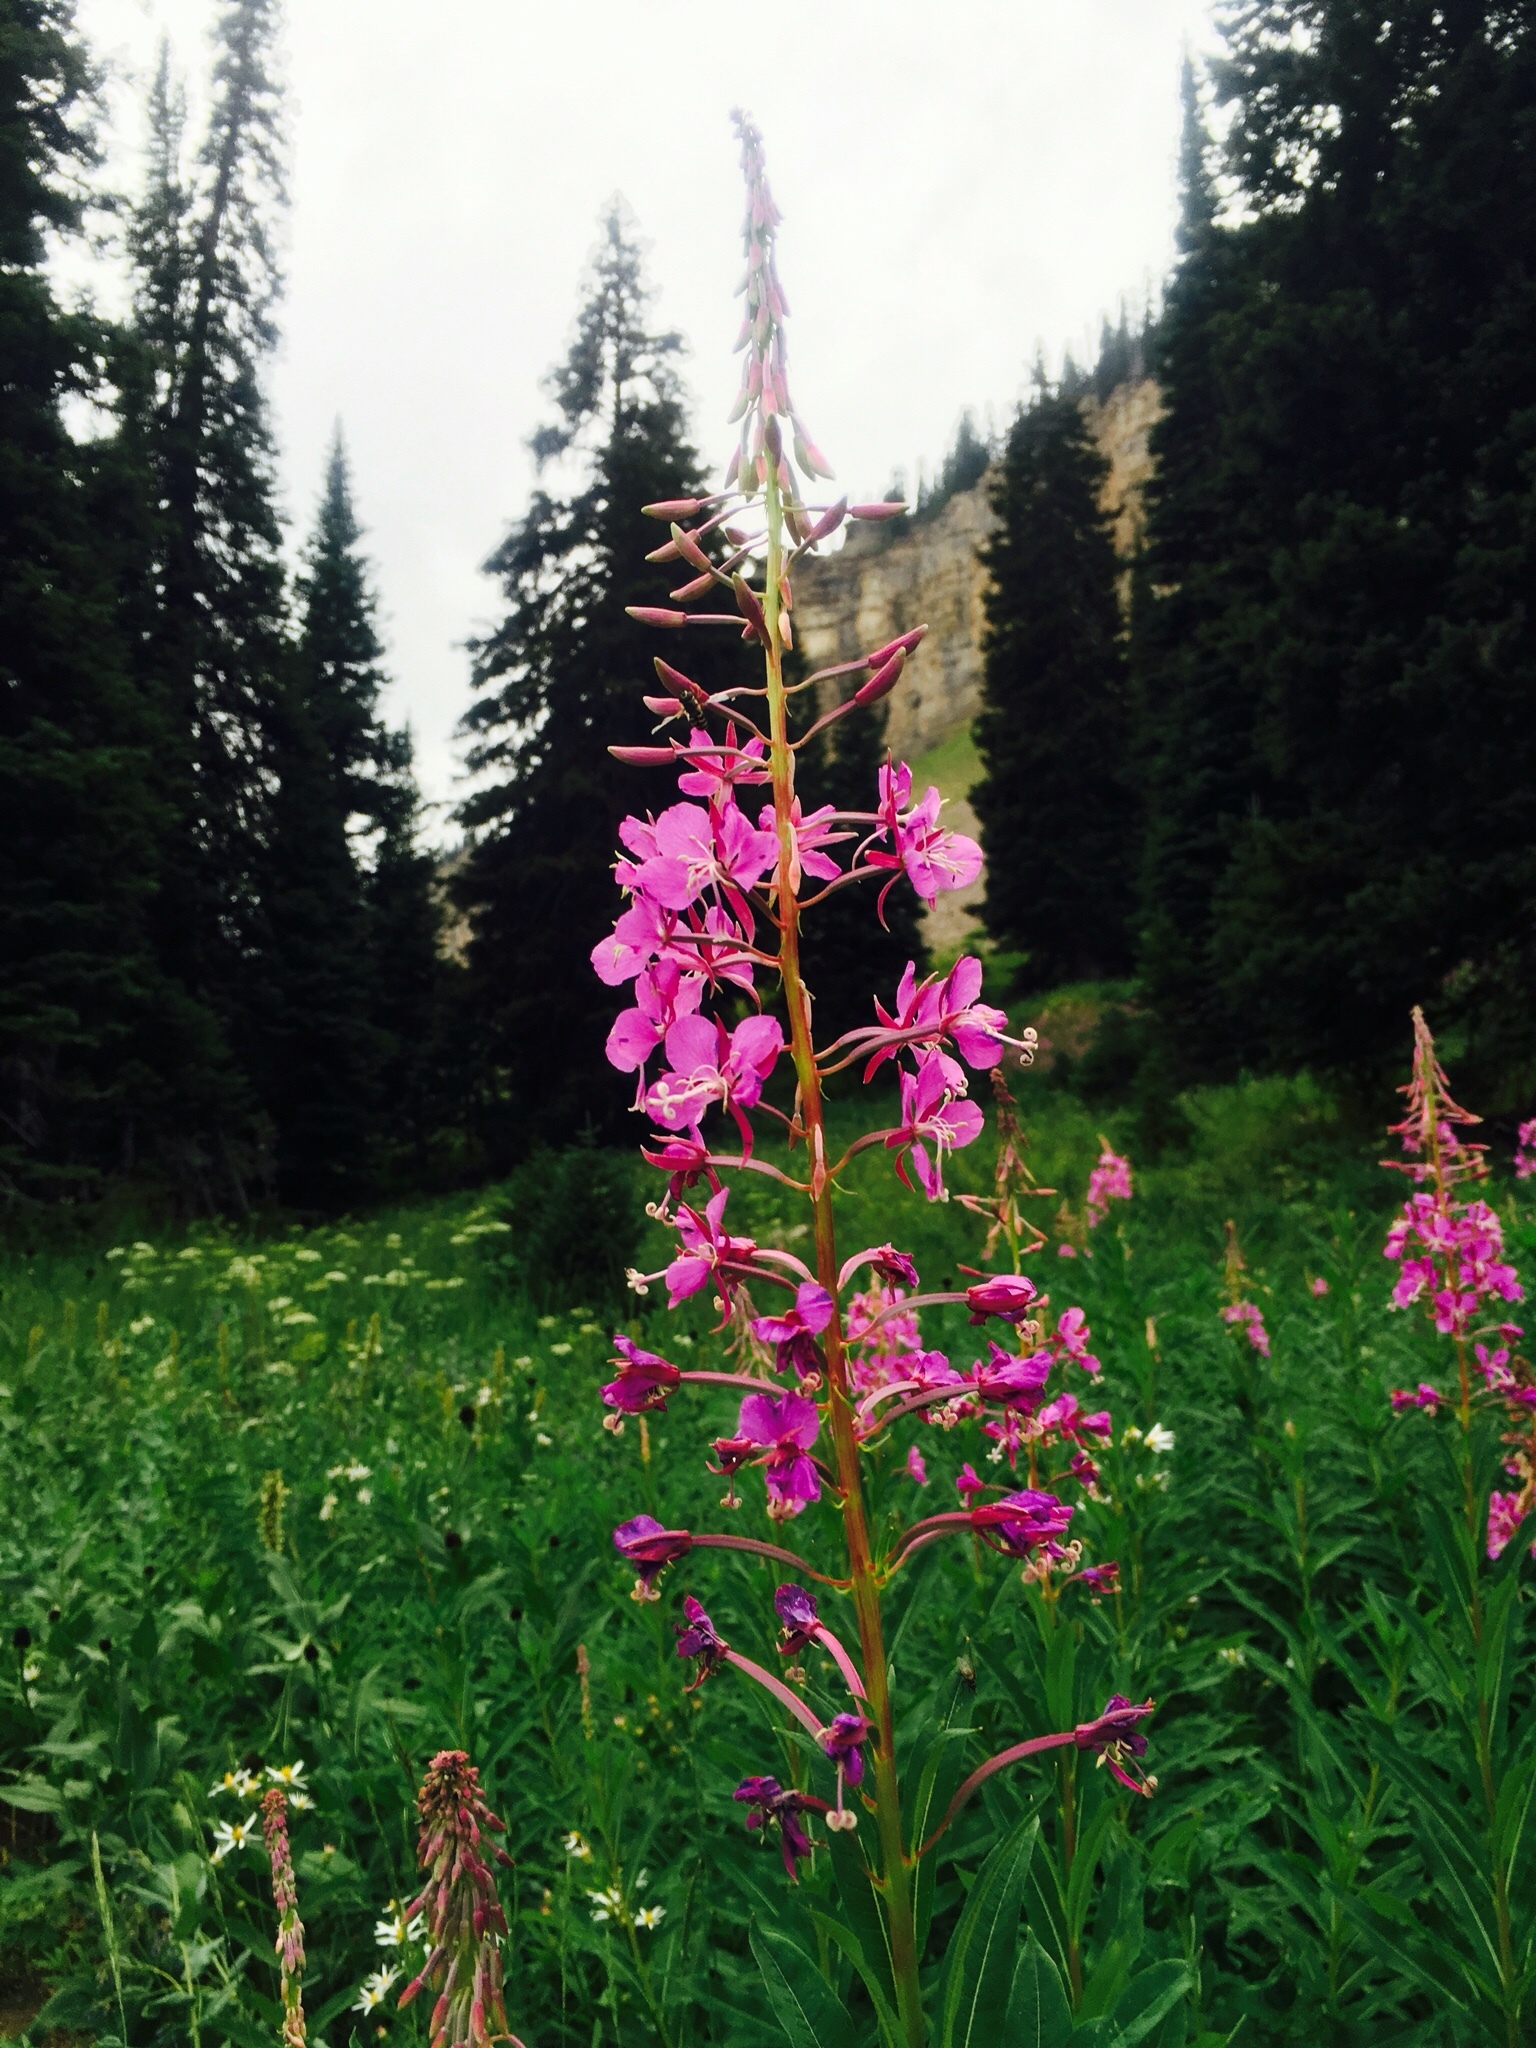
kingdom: Plantae
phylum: Tracheophyta
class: Magnoliopsida
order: Myrtales
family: Onagraceae
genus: Chamaenerion
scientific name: Chamaenerion angustifolium
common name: Fireweed
